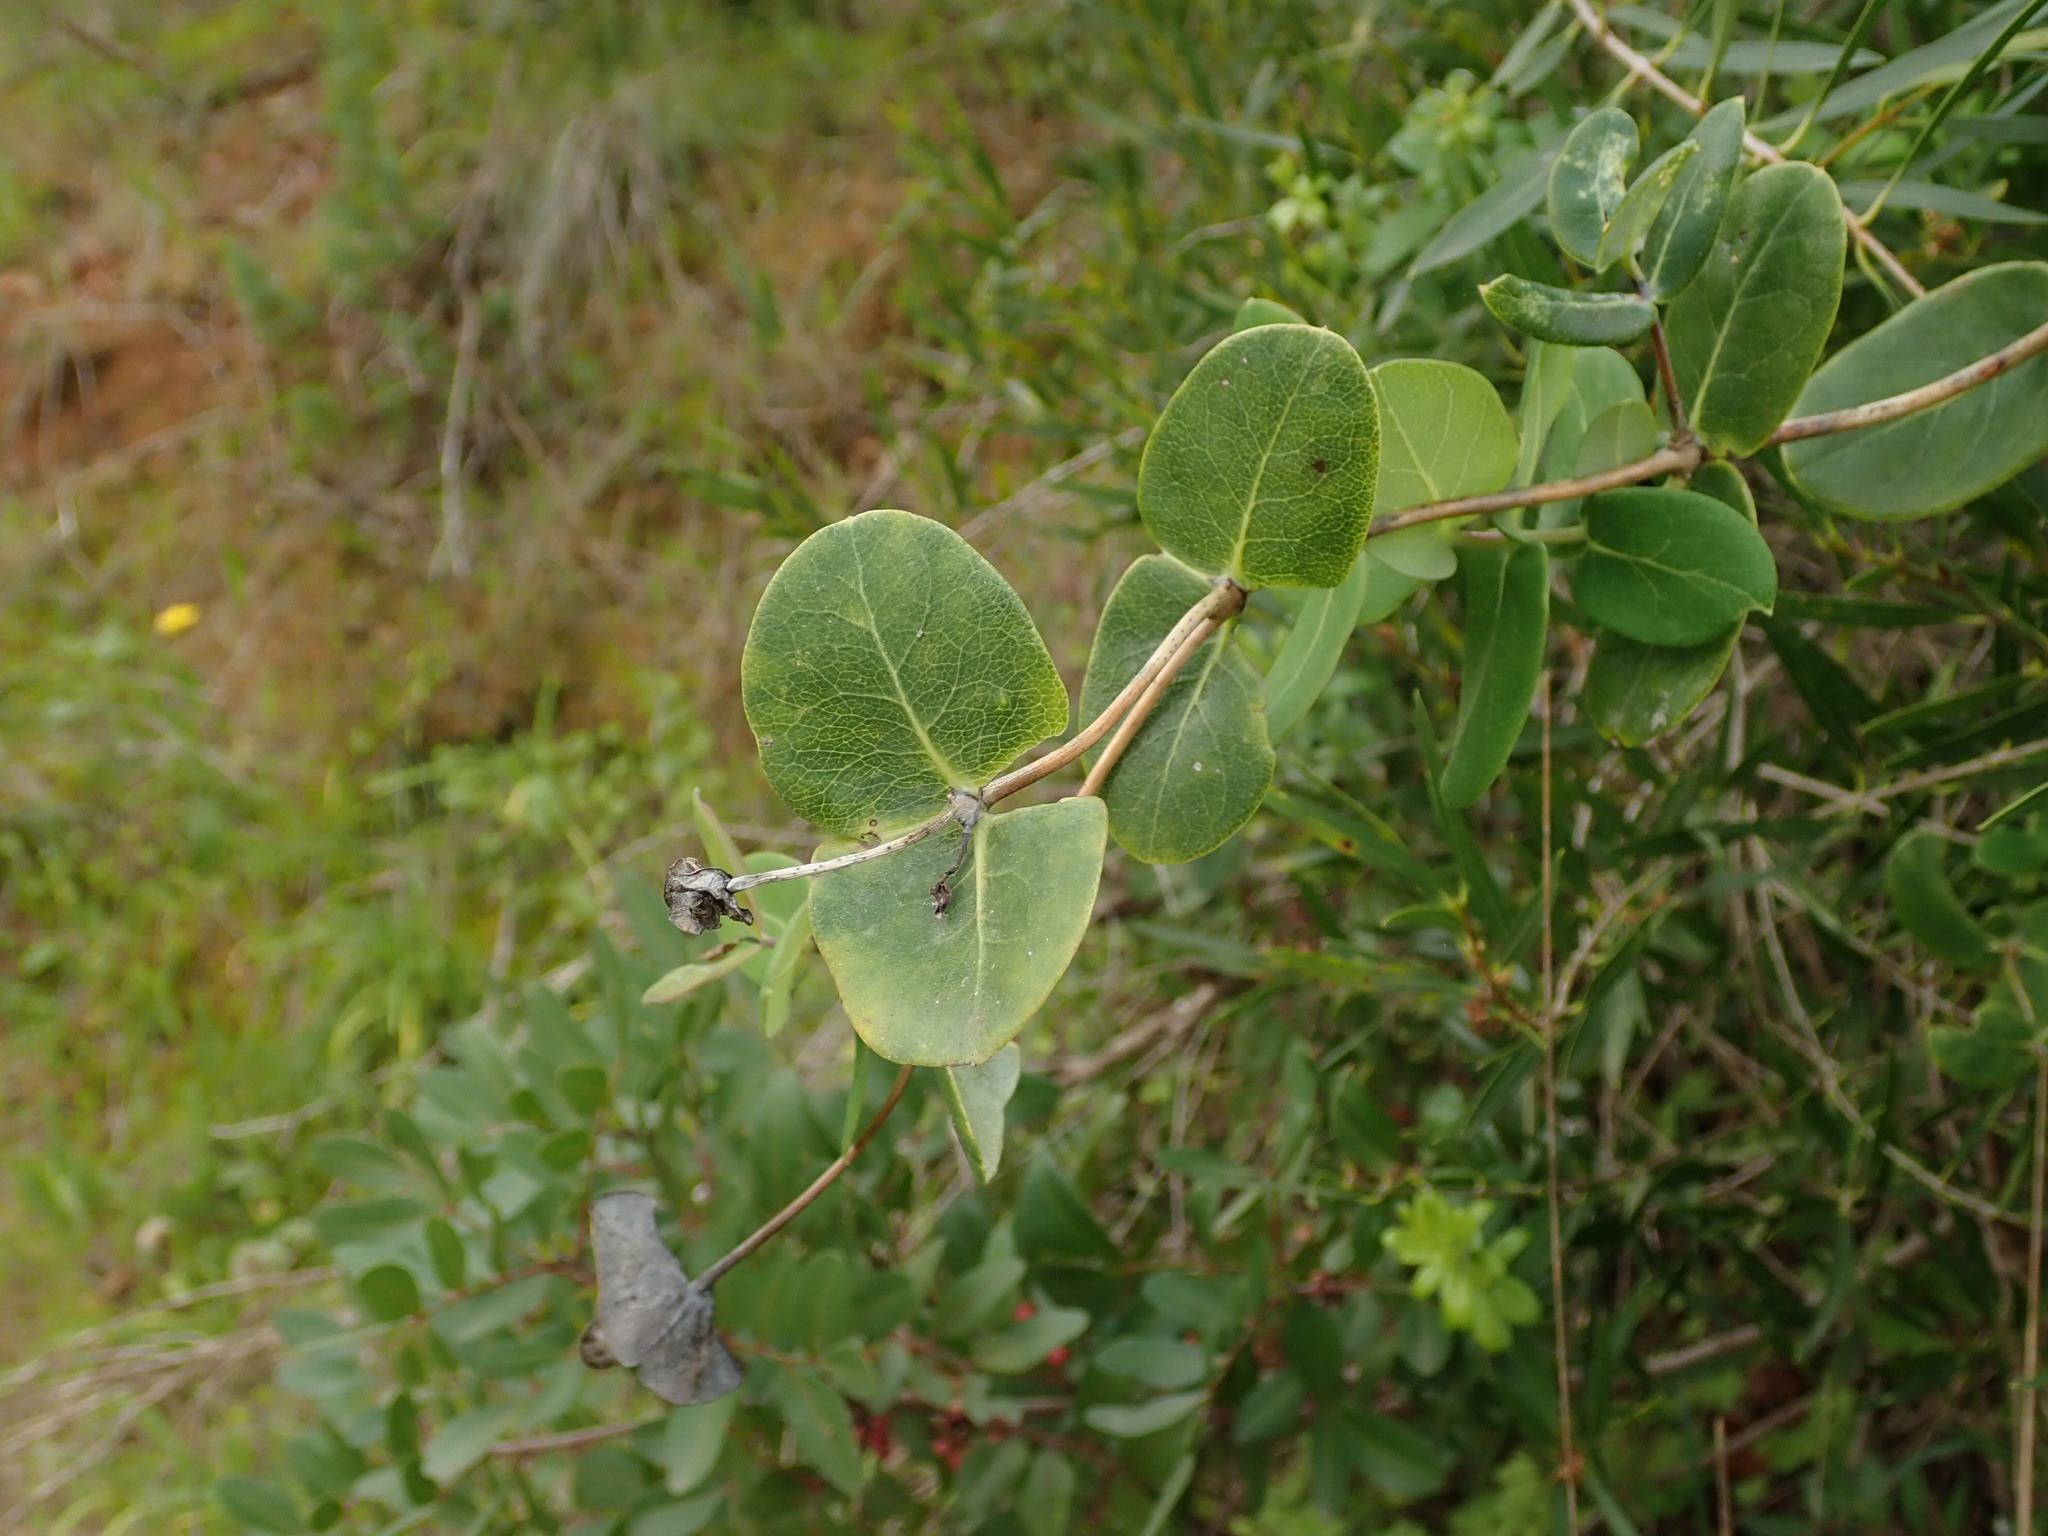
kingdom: Plantae
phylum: Tracheophyta
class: Magnoliopsida
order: Dipsacales
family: Caprifoliaceae
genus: Lonicera
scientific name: Lonicera implexa
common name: Minorca honeysuckle
